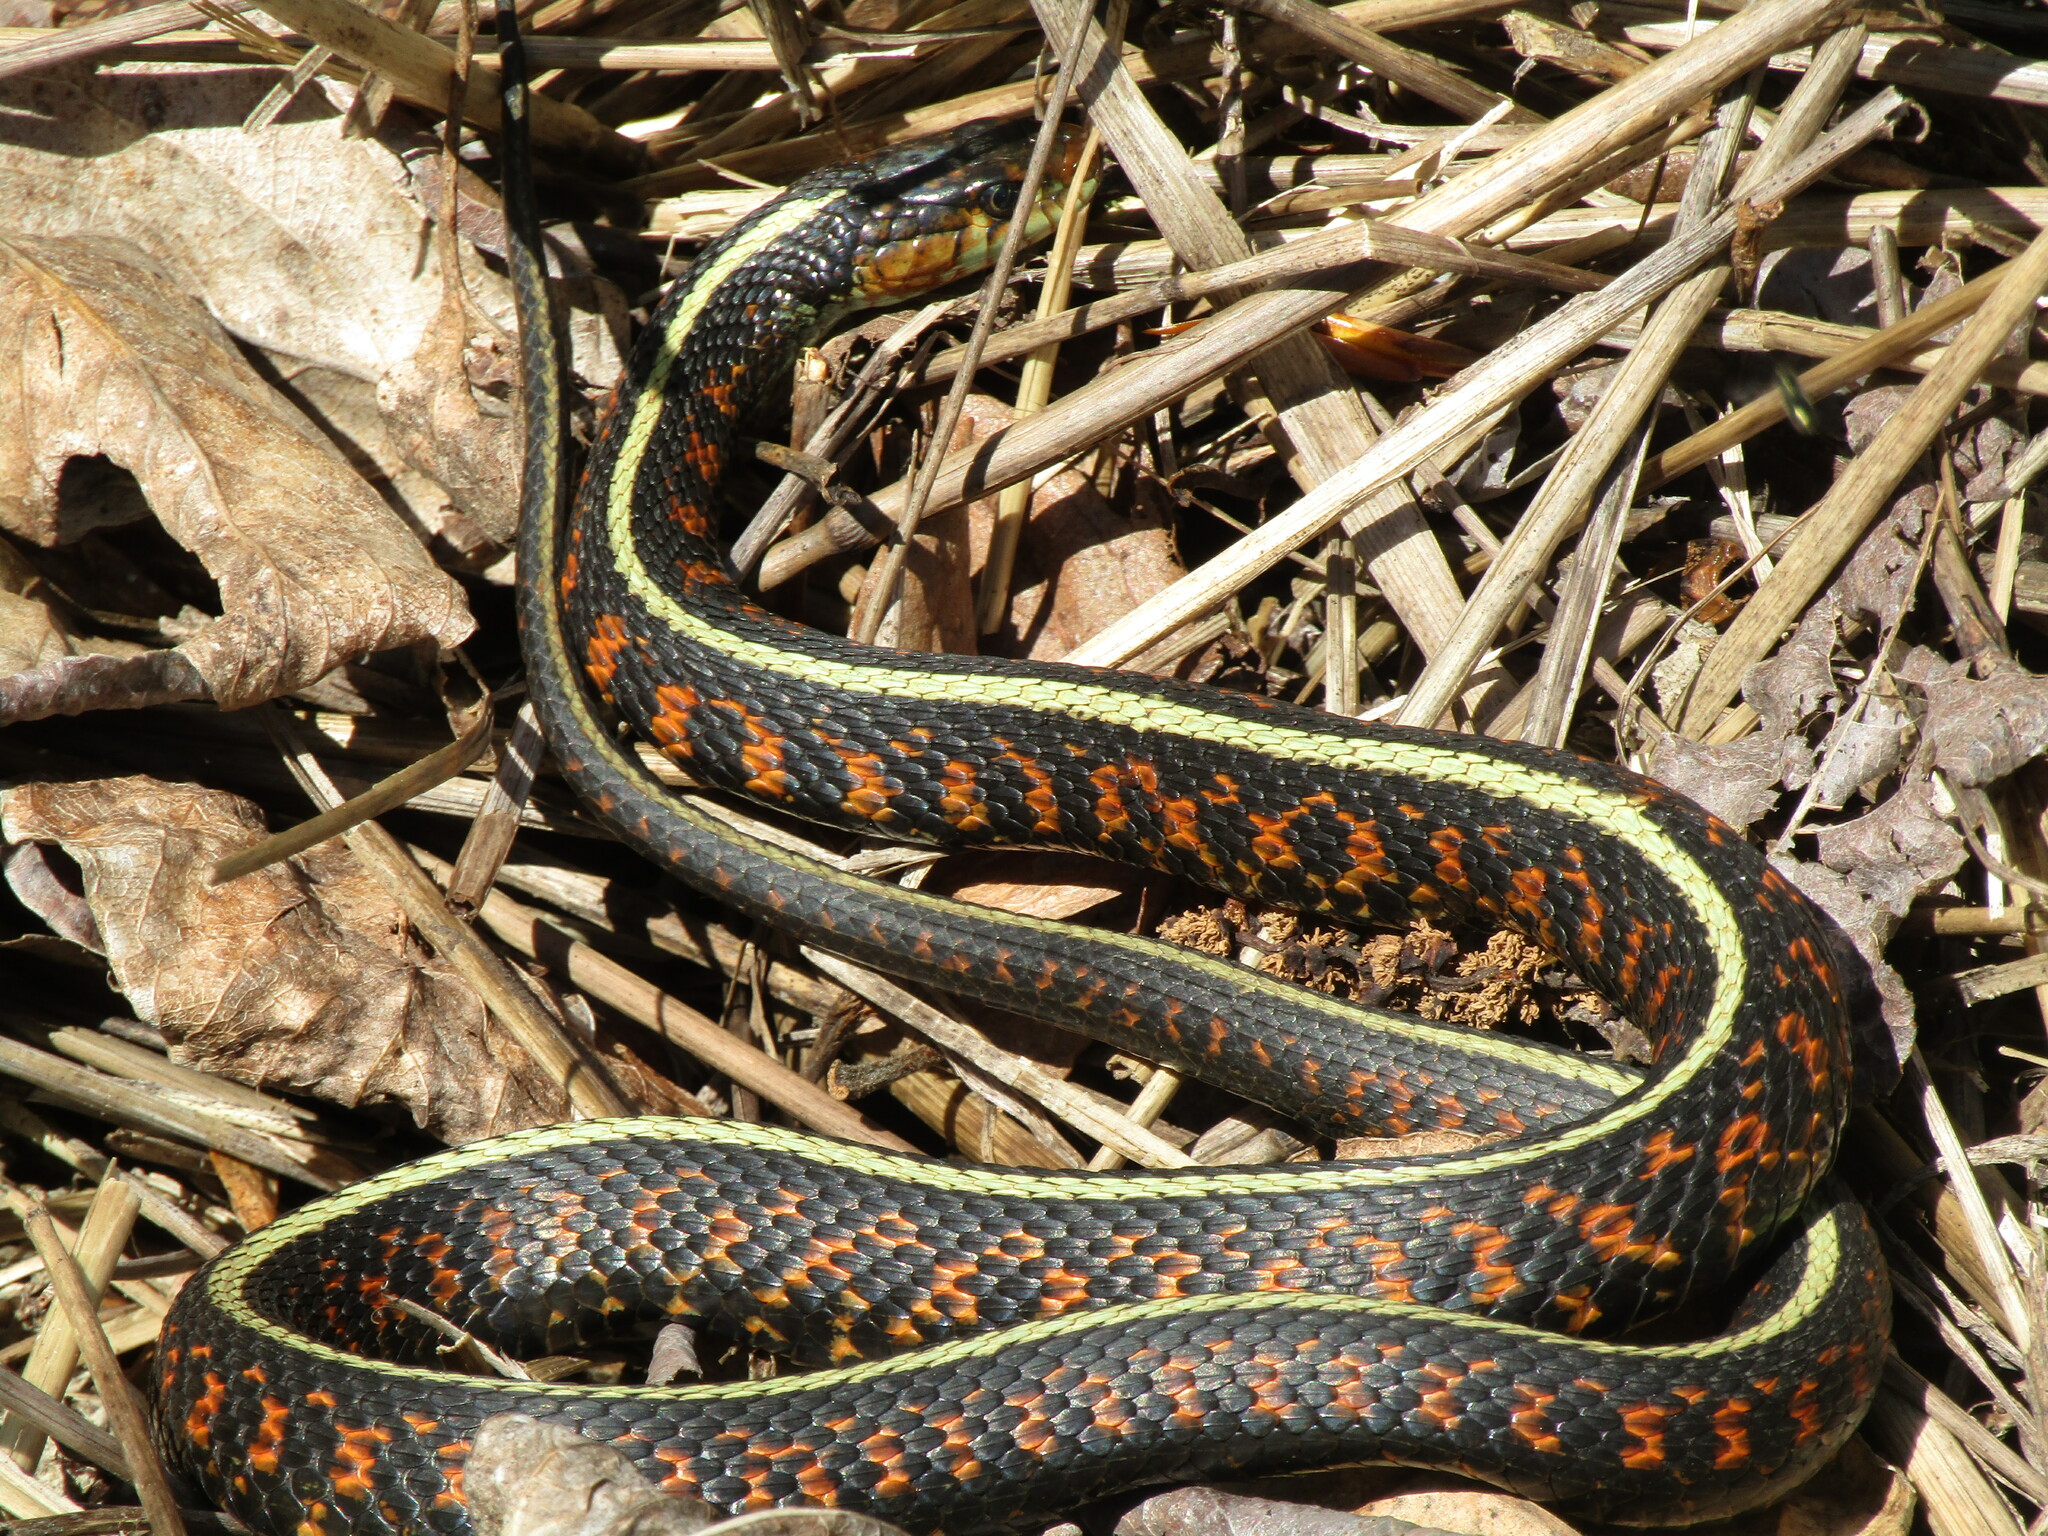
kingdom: Animalia
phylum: Chordata
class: Squamata
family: Colubridae
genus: Thamnophis
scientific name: Thamnophis sirtalis
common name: Common garter snake
